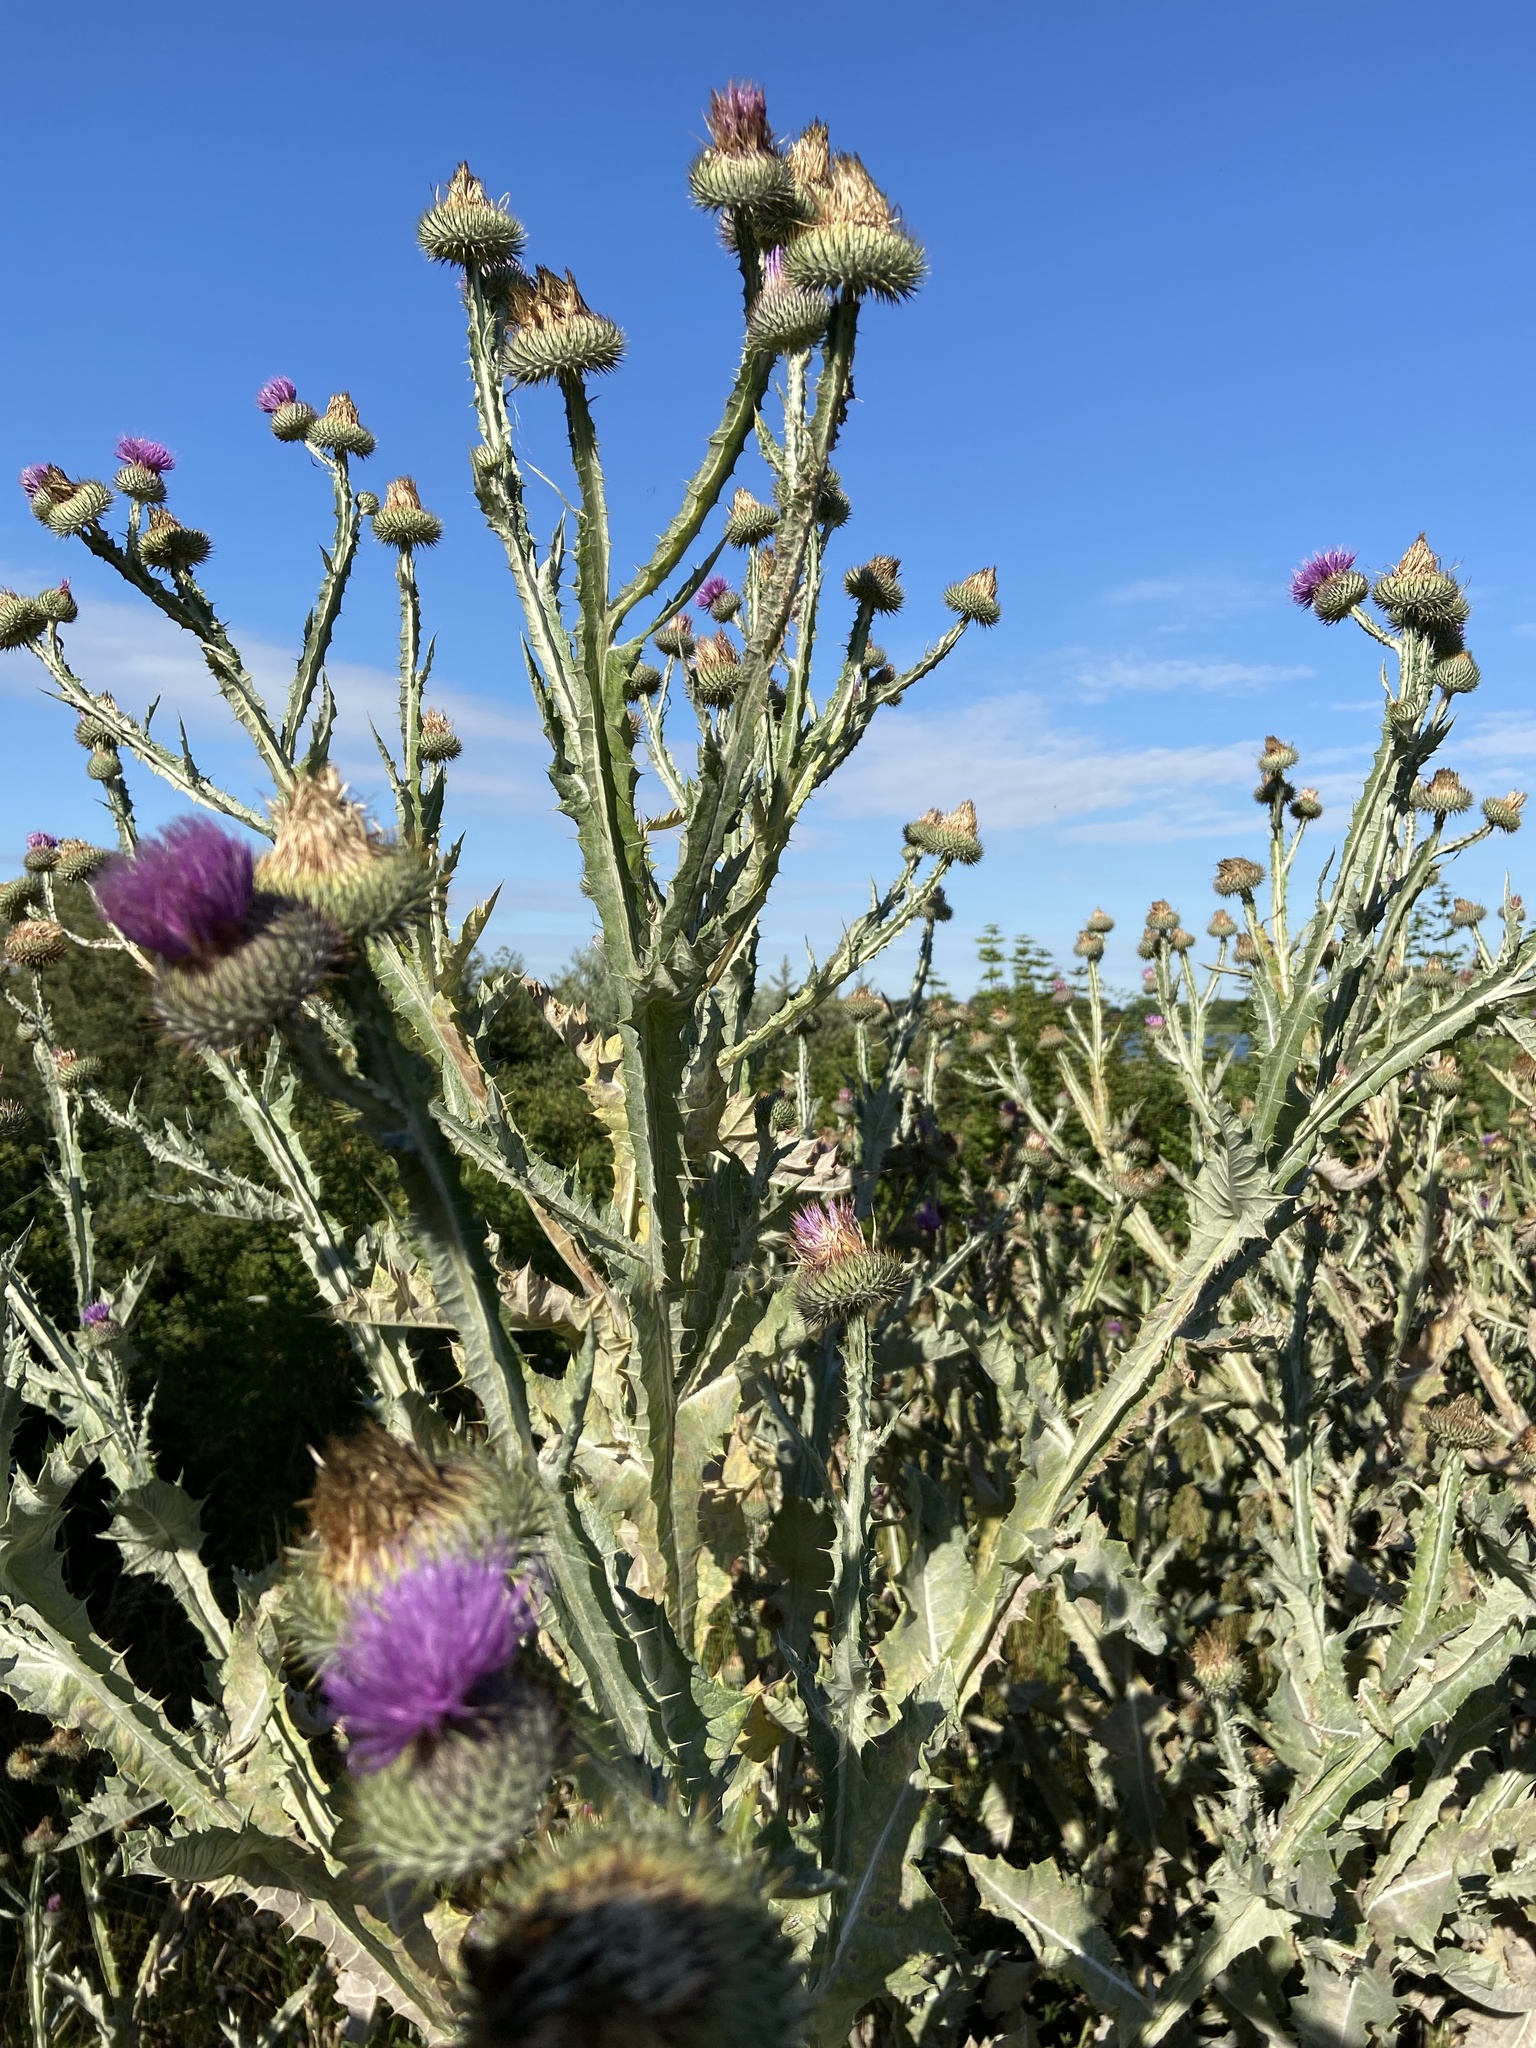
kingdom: Plantae
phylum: Tracheophyta
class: Magnoliopsida
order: Asterales
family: Asteraceae
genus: Onopordum
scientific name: Onopordum acanthium
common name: Scotch thistle
